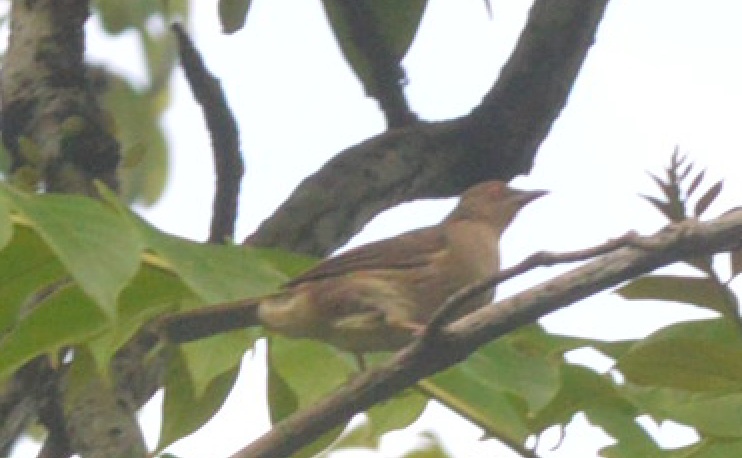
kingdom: Animalia
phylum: Chordata
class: Aves
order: Passeriformes
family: Pycnonotidae
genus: Pycnonotus
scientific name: Pycnonotus brunneus
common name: Asian red-eyed bulbul
